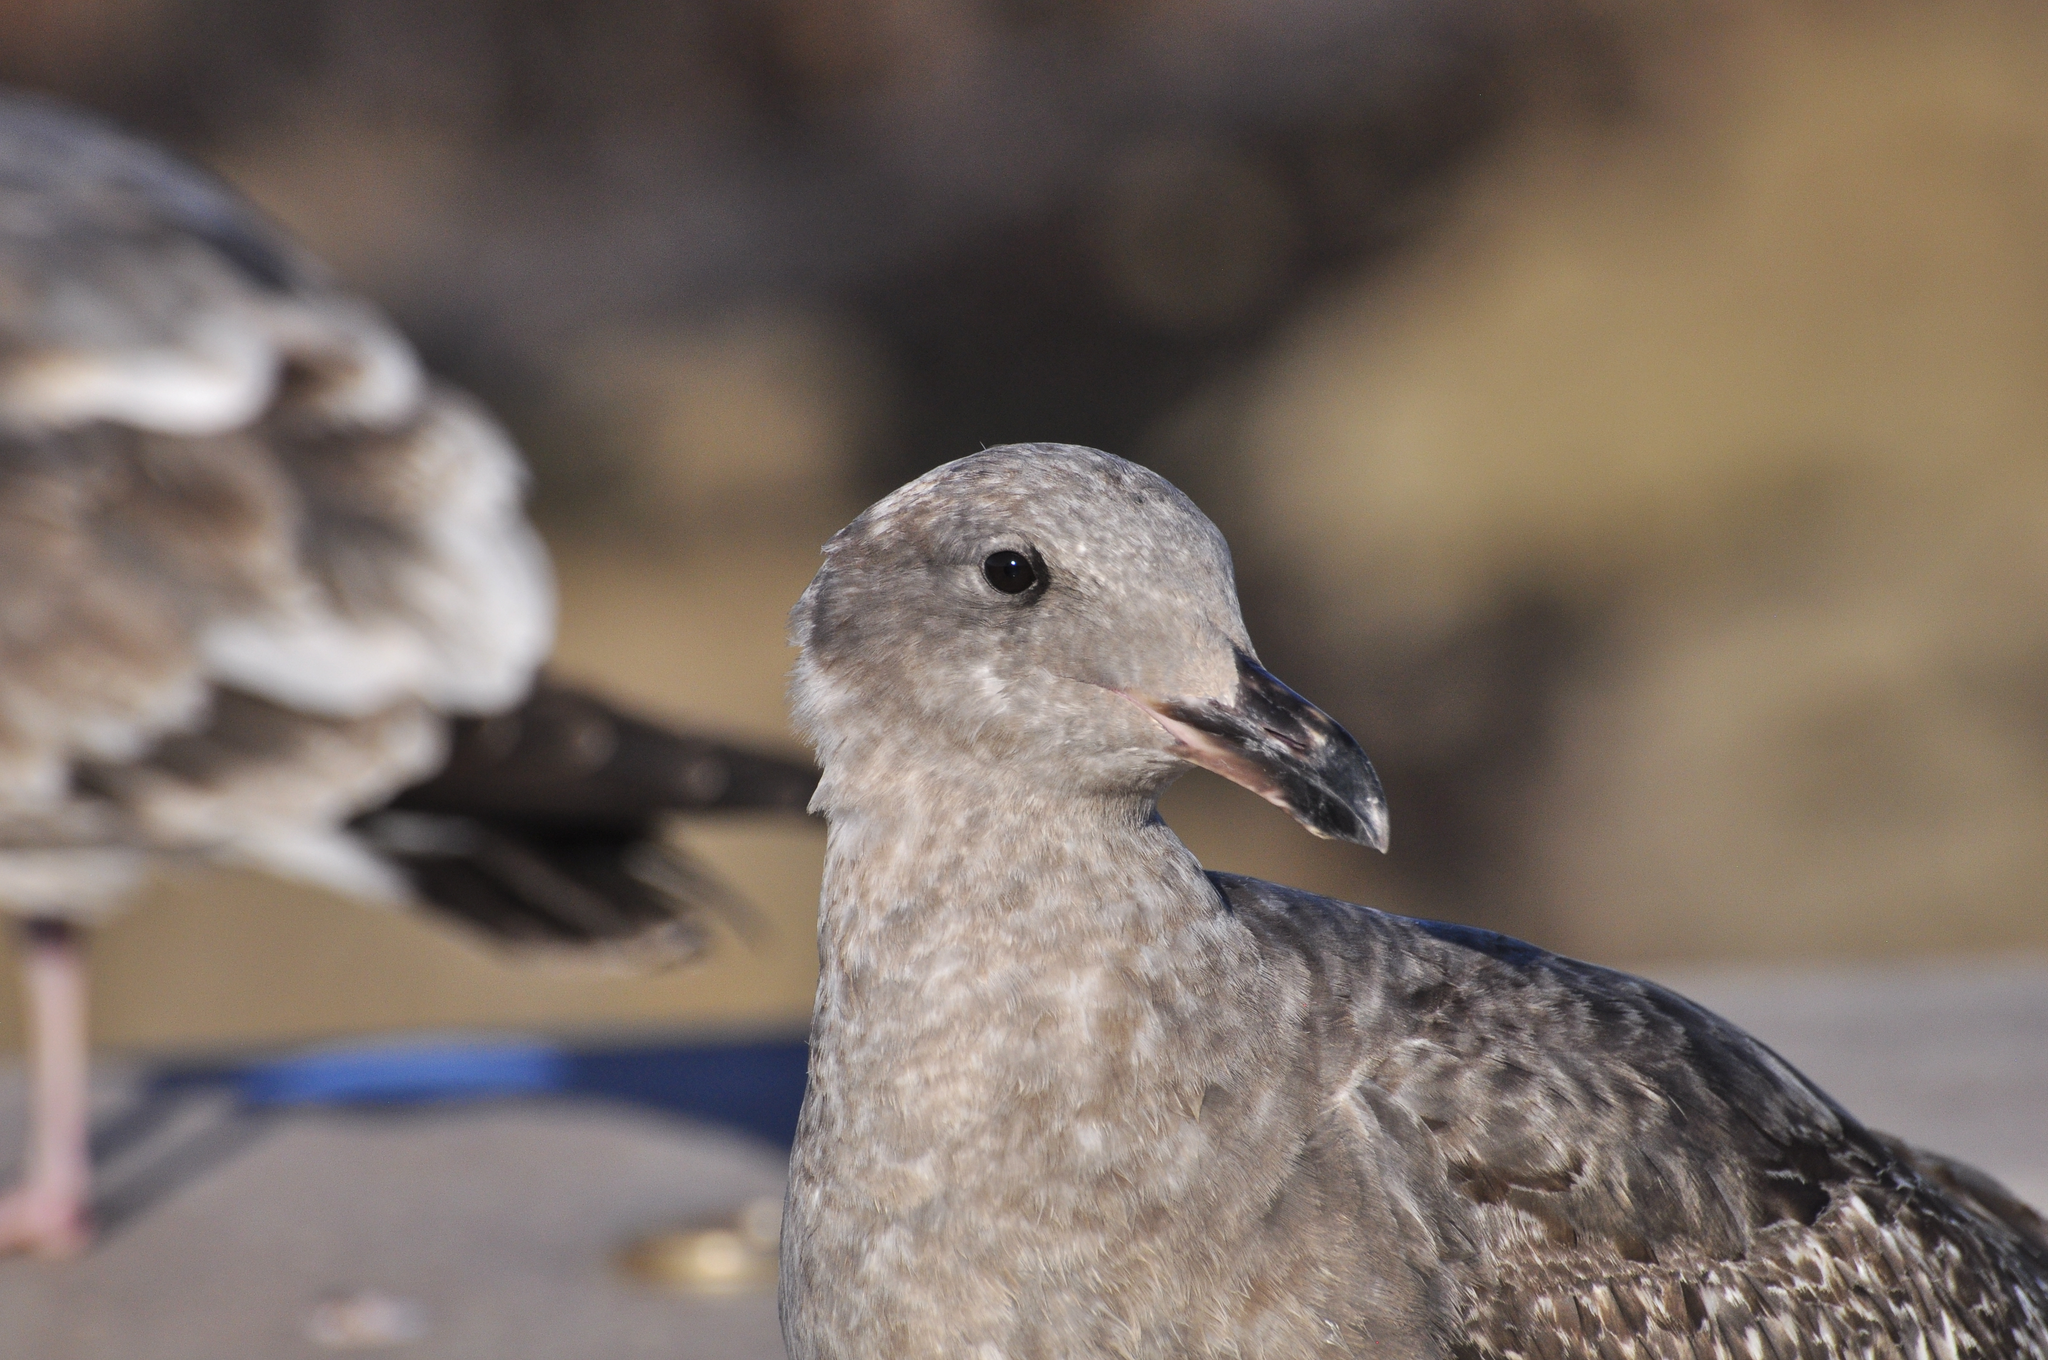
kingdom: Animalia
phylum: Chordata
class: Aves
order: Charadriiformes
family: Laridae
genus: Larus
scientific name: Larus occidentalis
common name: Western gull
